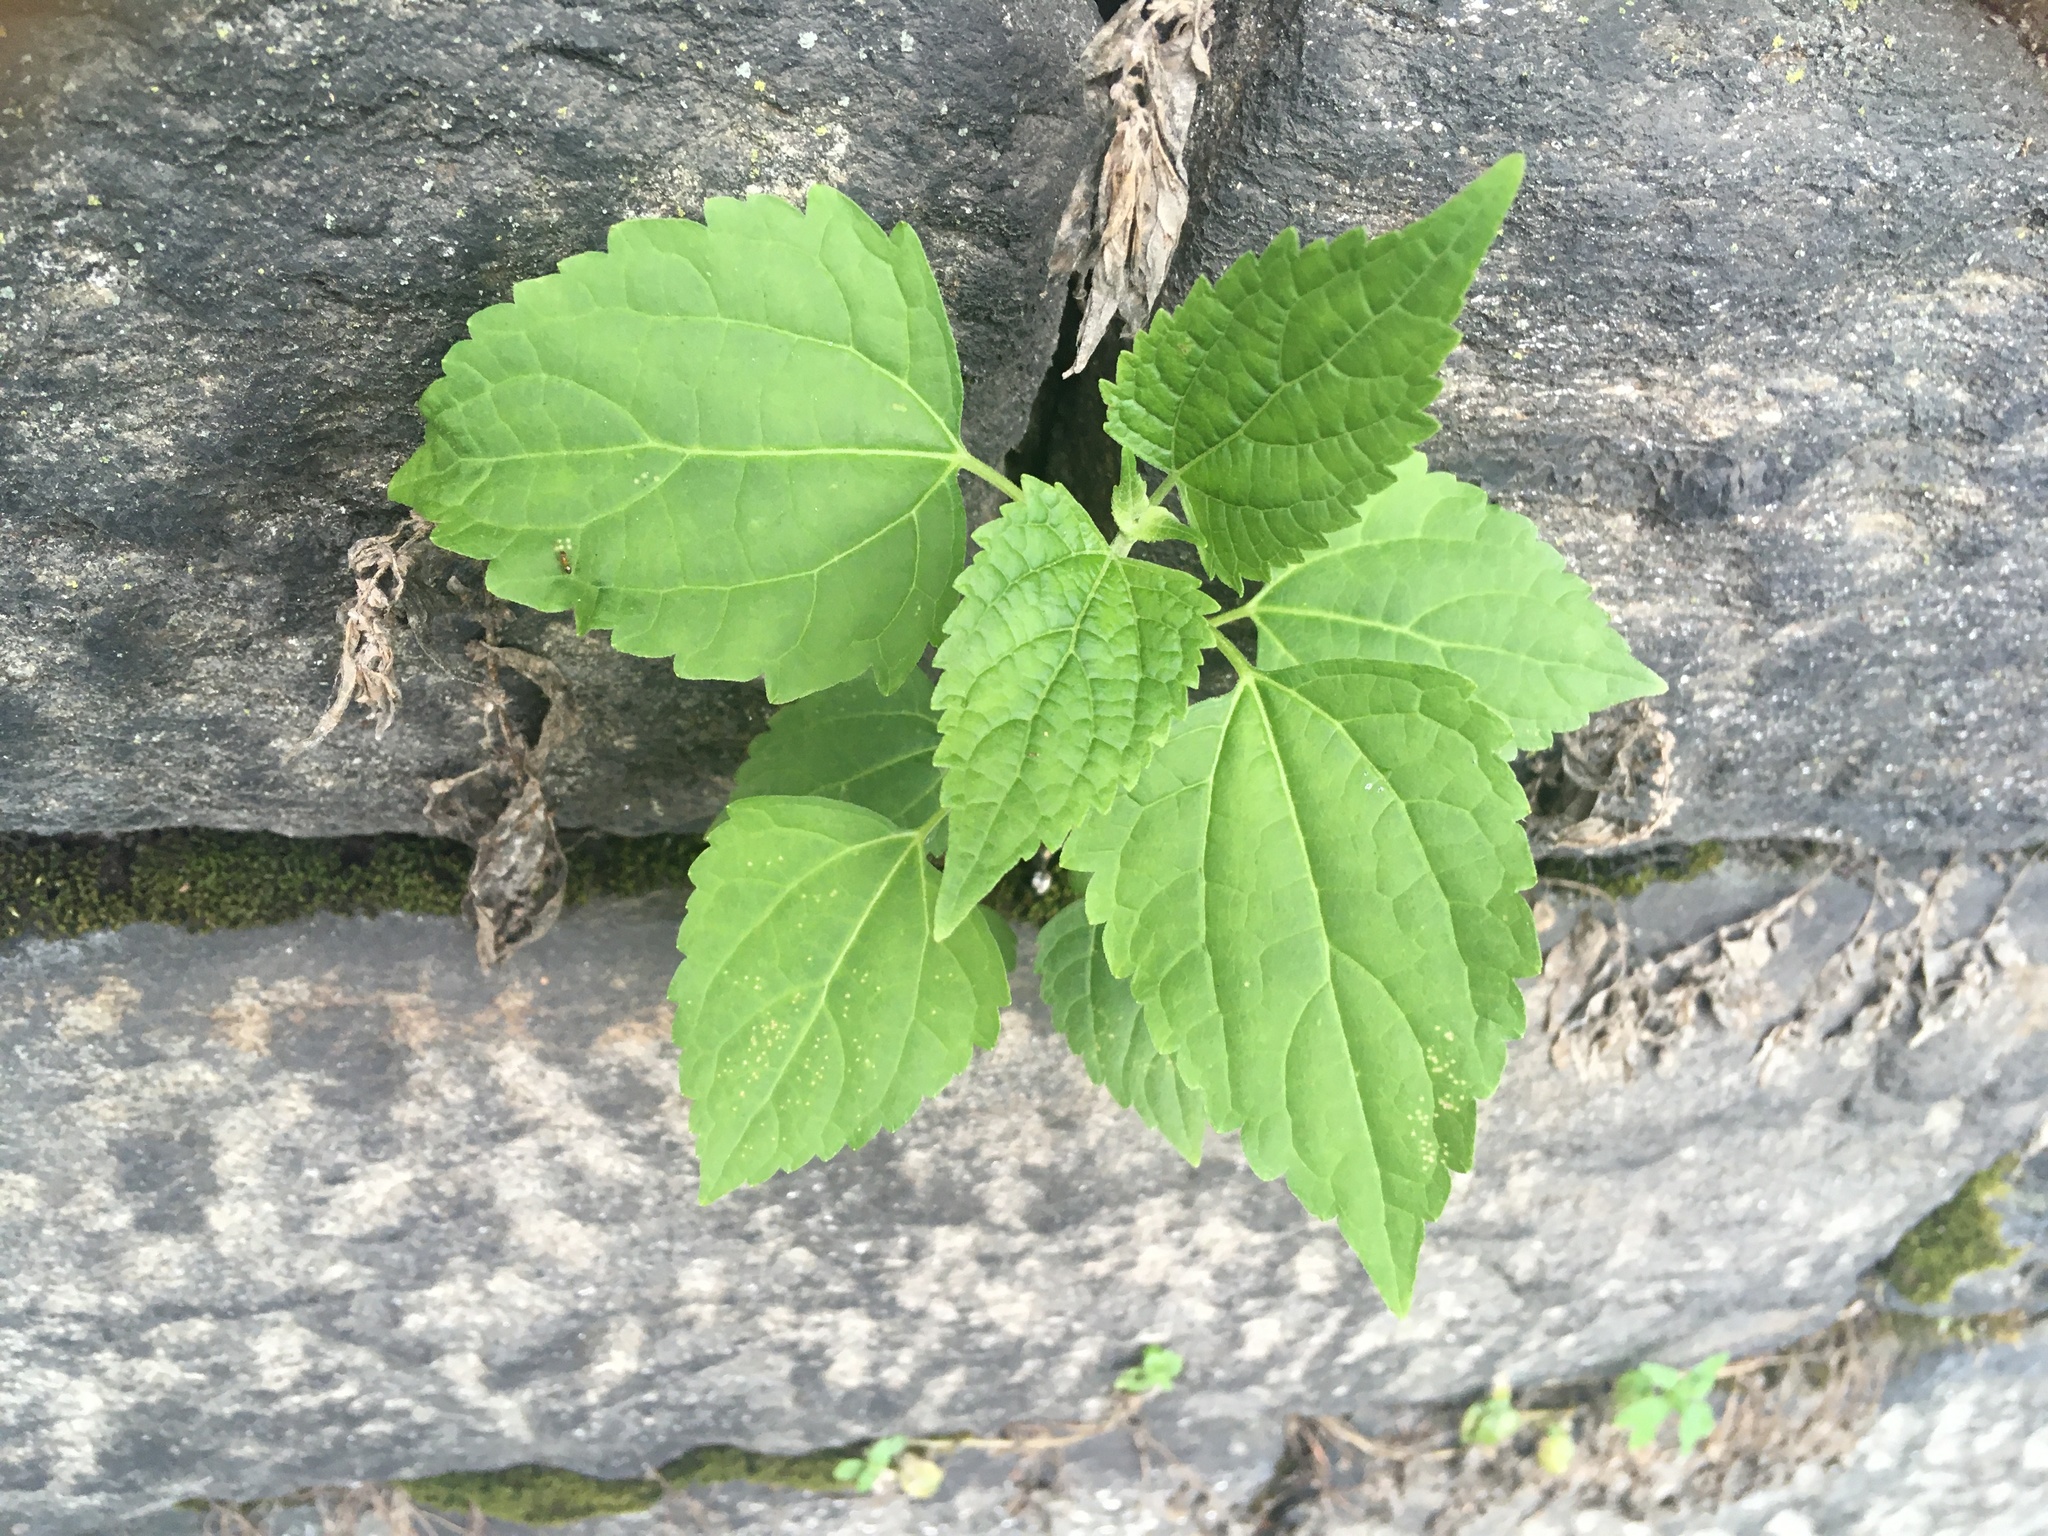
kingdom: Plantae
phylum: Tracheophyta
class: Magnoliopsida
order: Asterales
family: Asteraceae
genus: Ageratina
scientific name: Ageratina altissima
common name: White snakeroot
